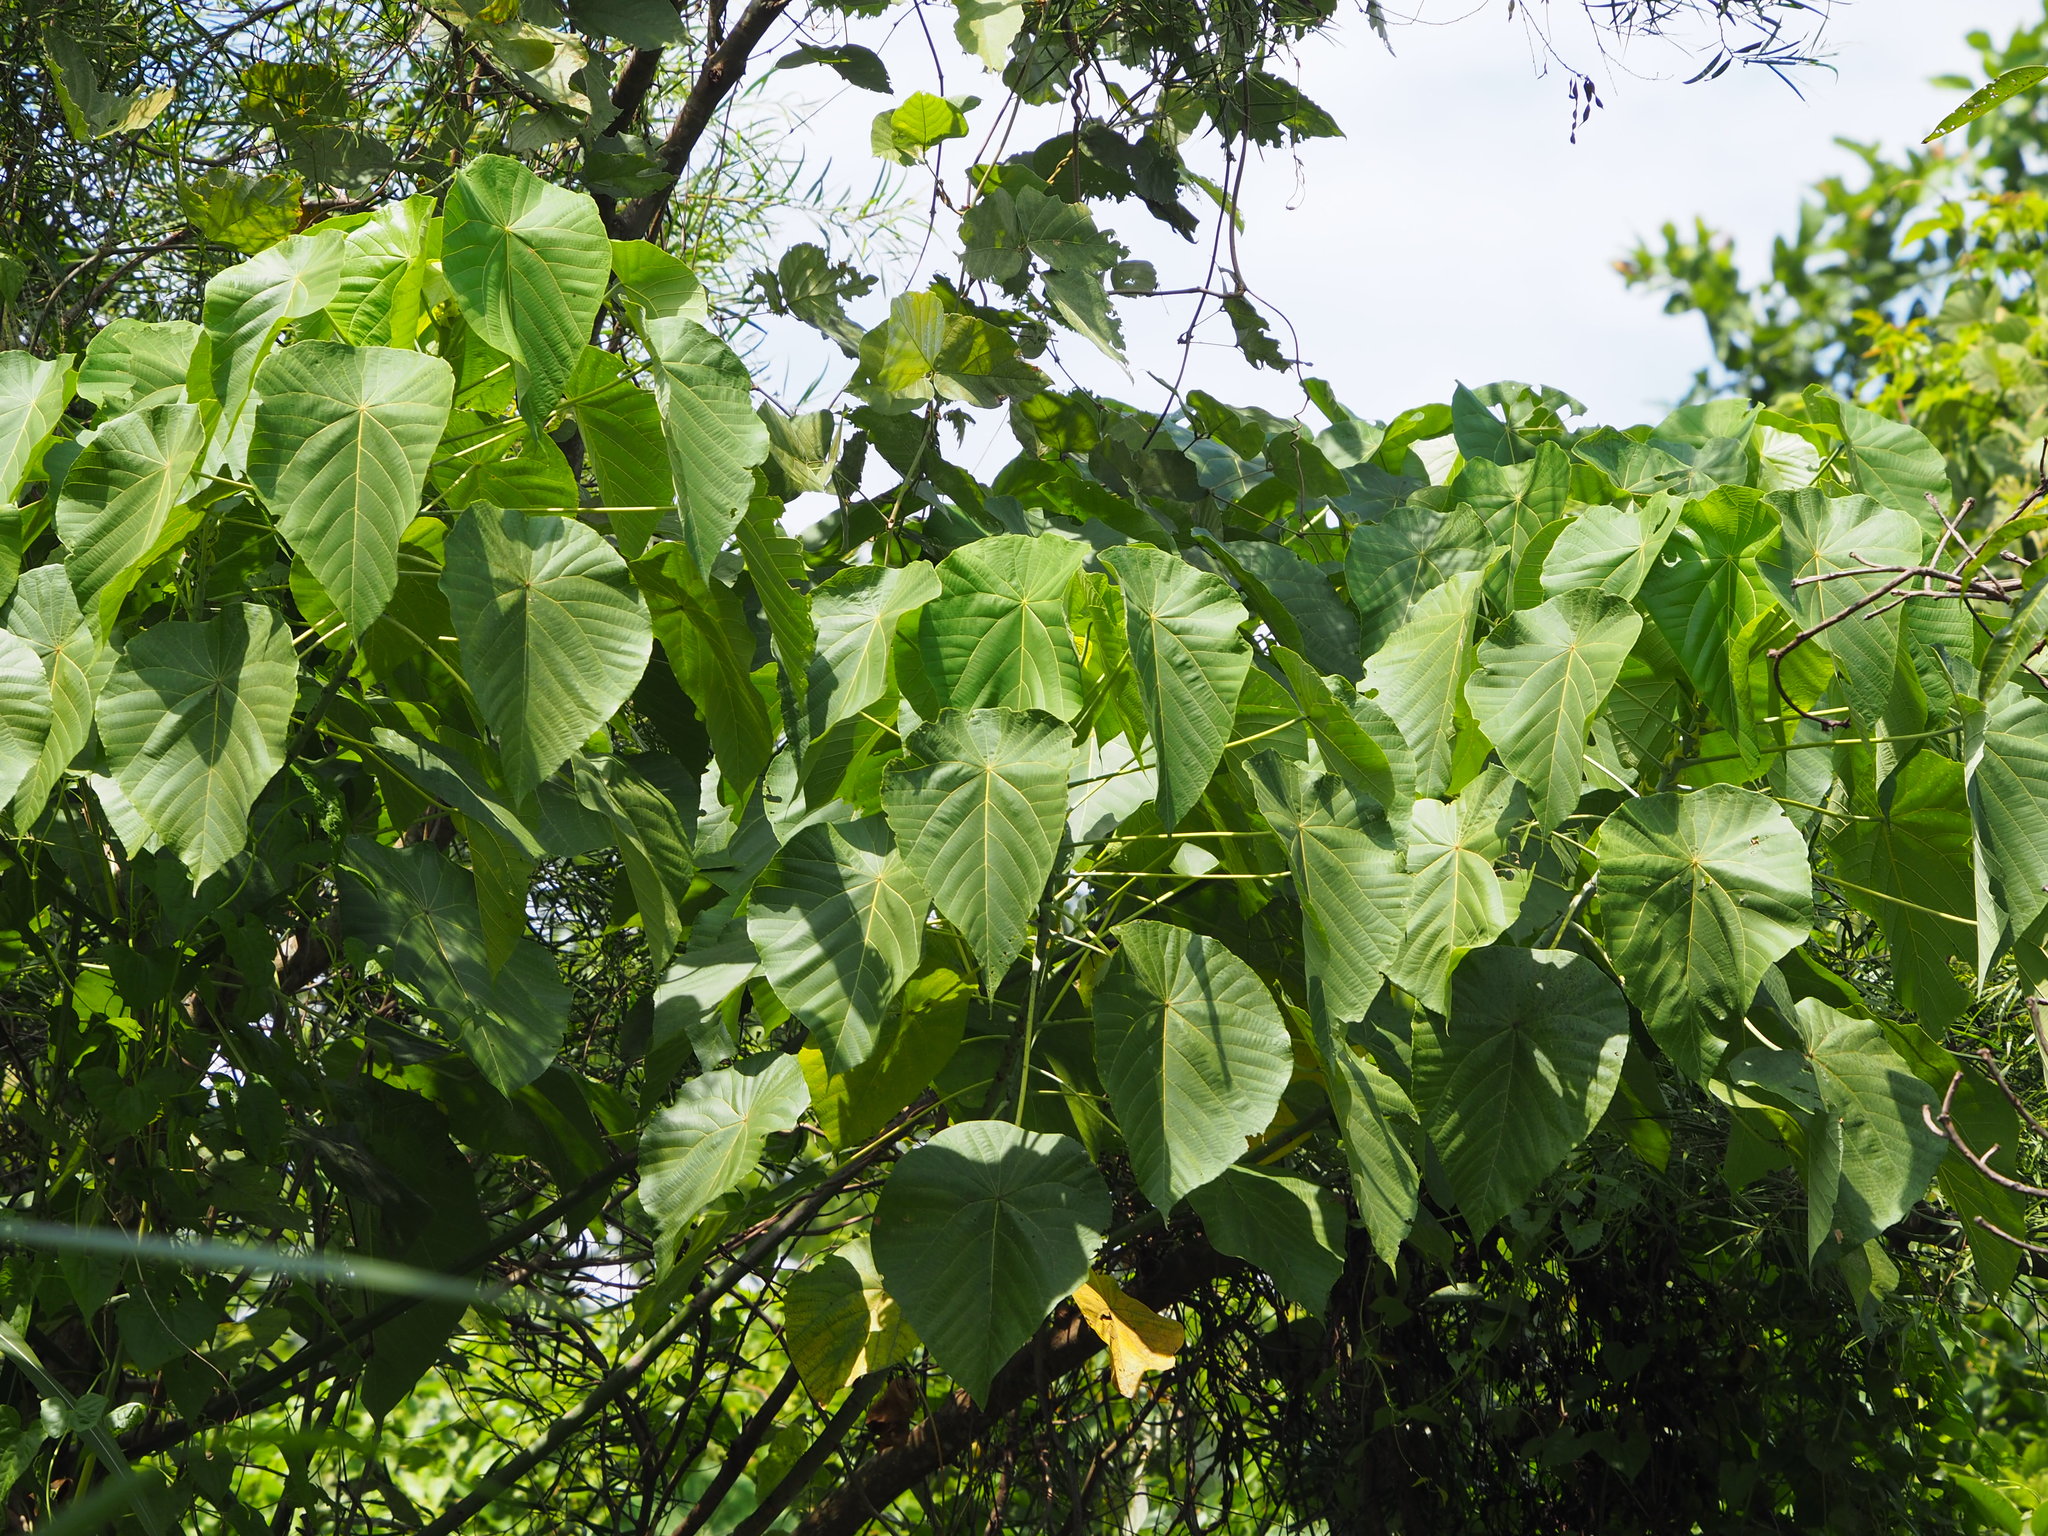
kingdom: Plantae
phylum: Tracheophyta
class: Magnoliopsida
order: Malpighiales
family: Euphorbiaceae
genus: Macaranga
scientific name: Macaranga tanarius
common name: Parasol leaf tree
